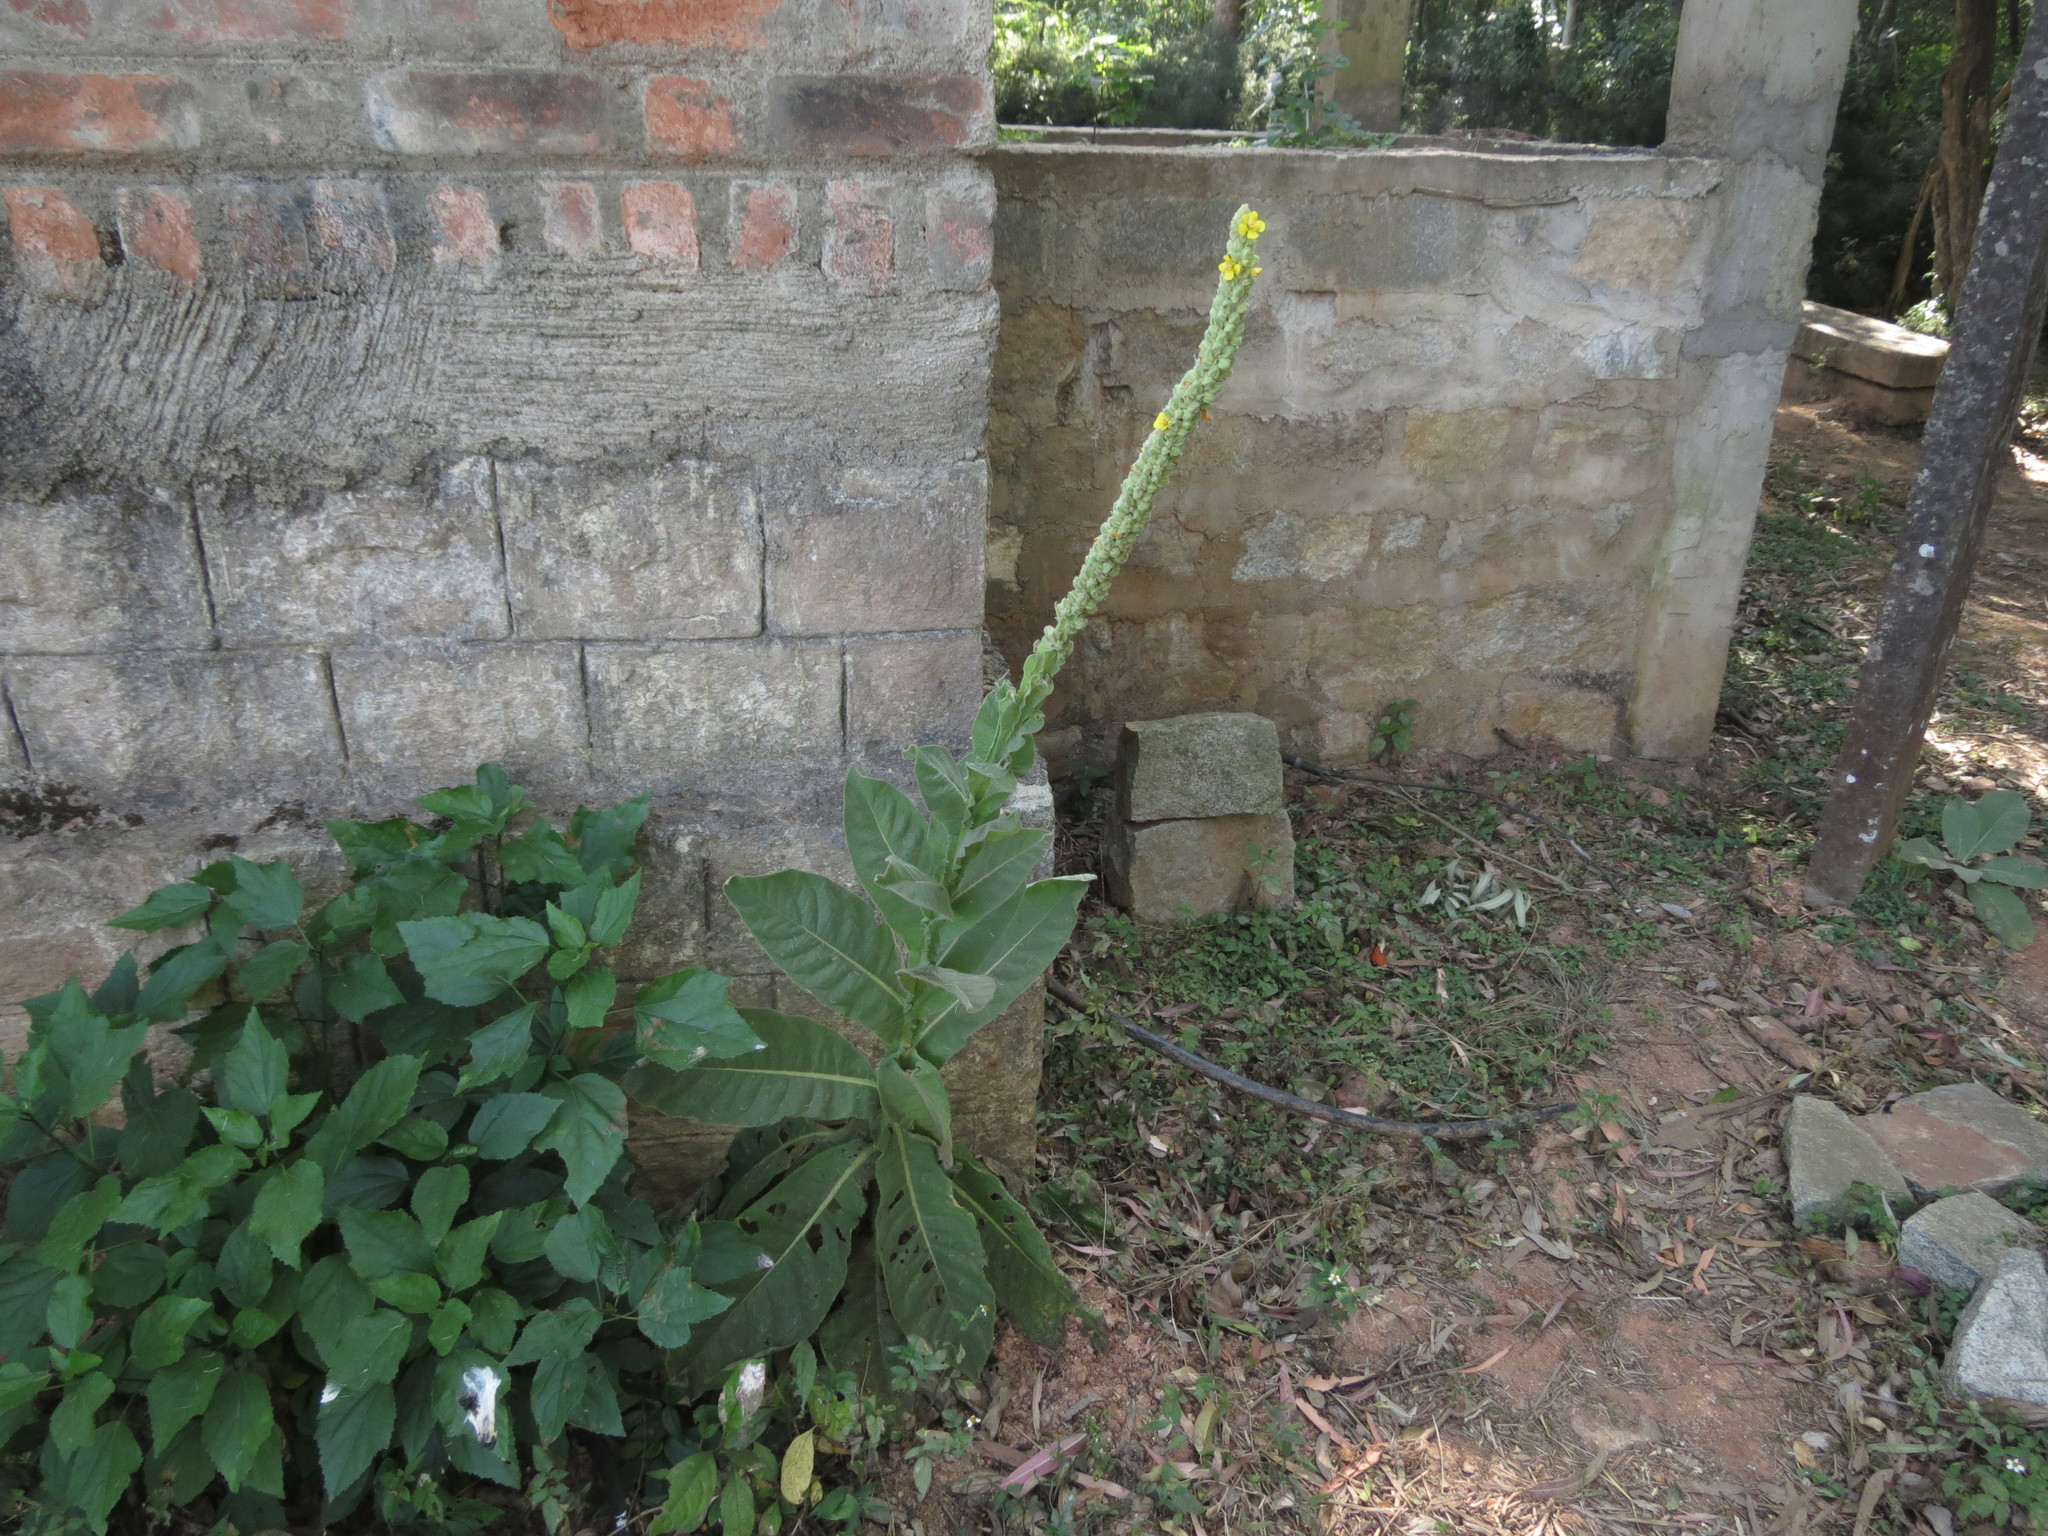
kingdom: Plantae
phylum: Tracheophyta
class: Magnoliopsida
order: Lamiales
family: Scrophulariaceae
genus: Verbascum
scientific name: Verbascum thapsus
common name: Common mullein
